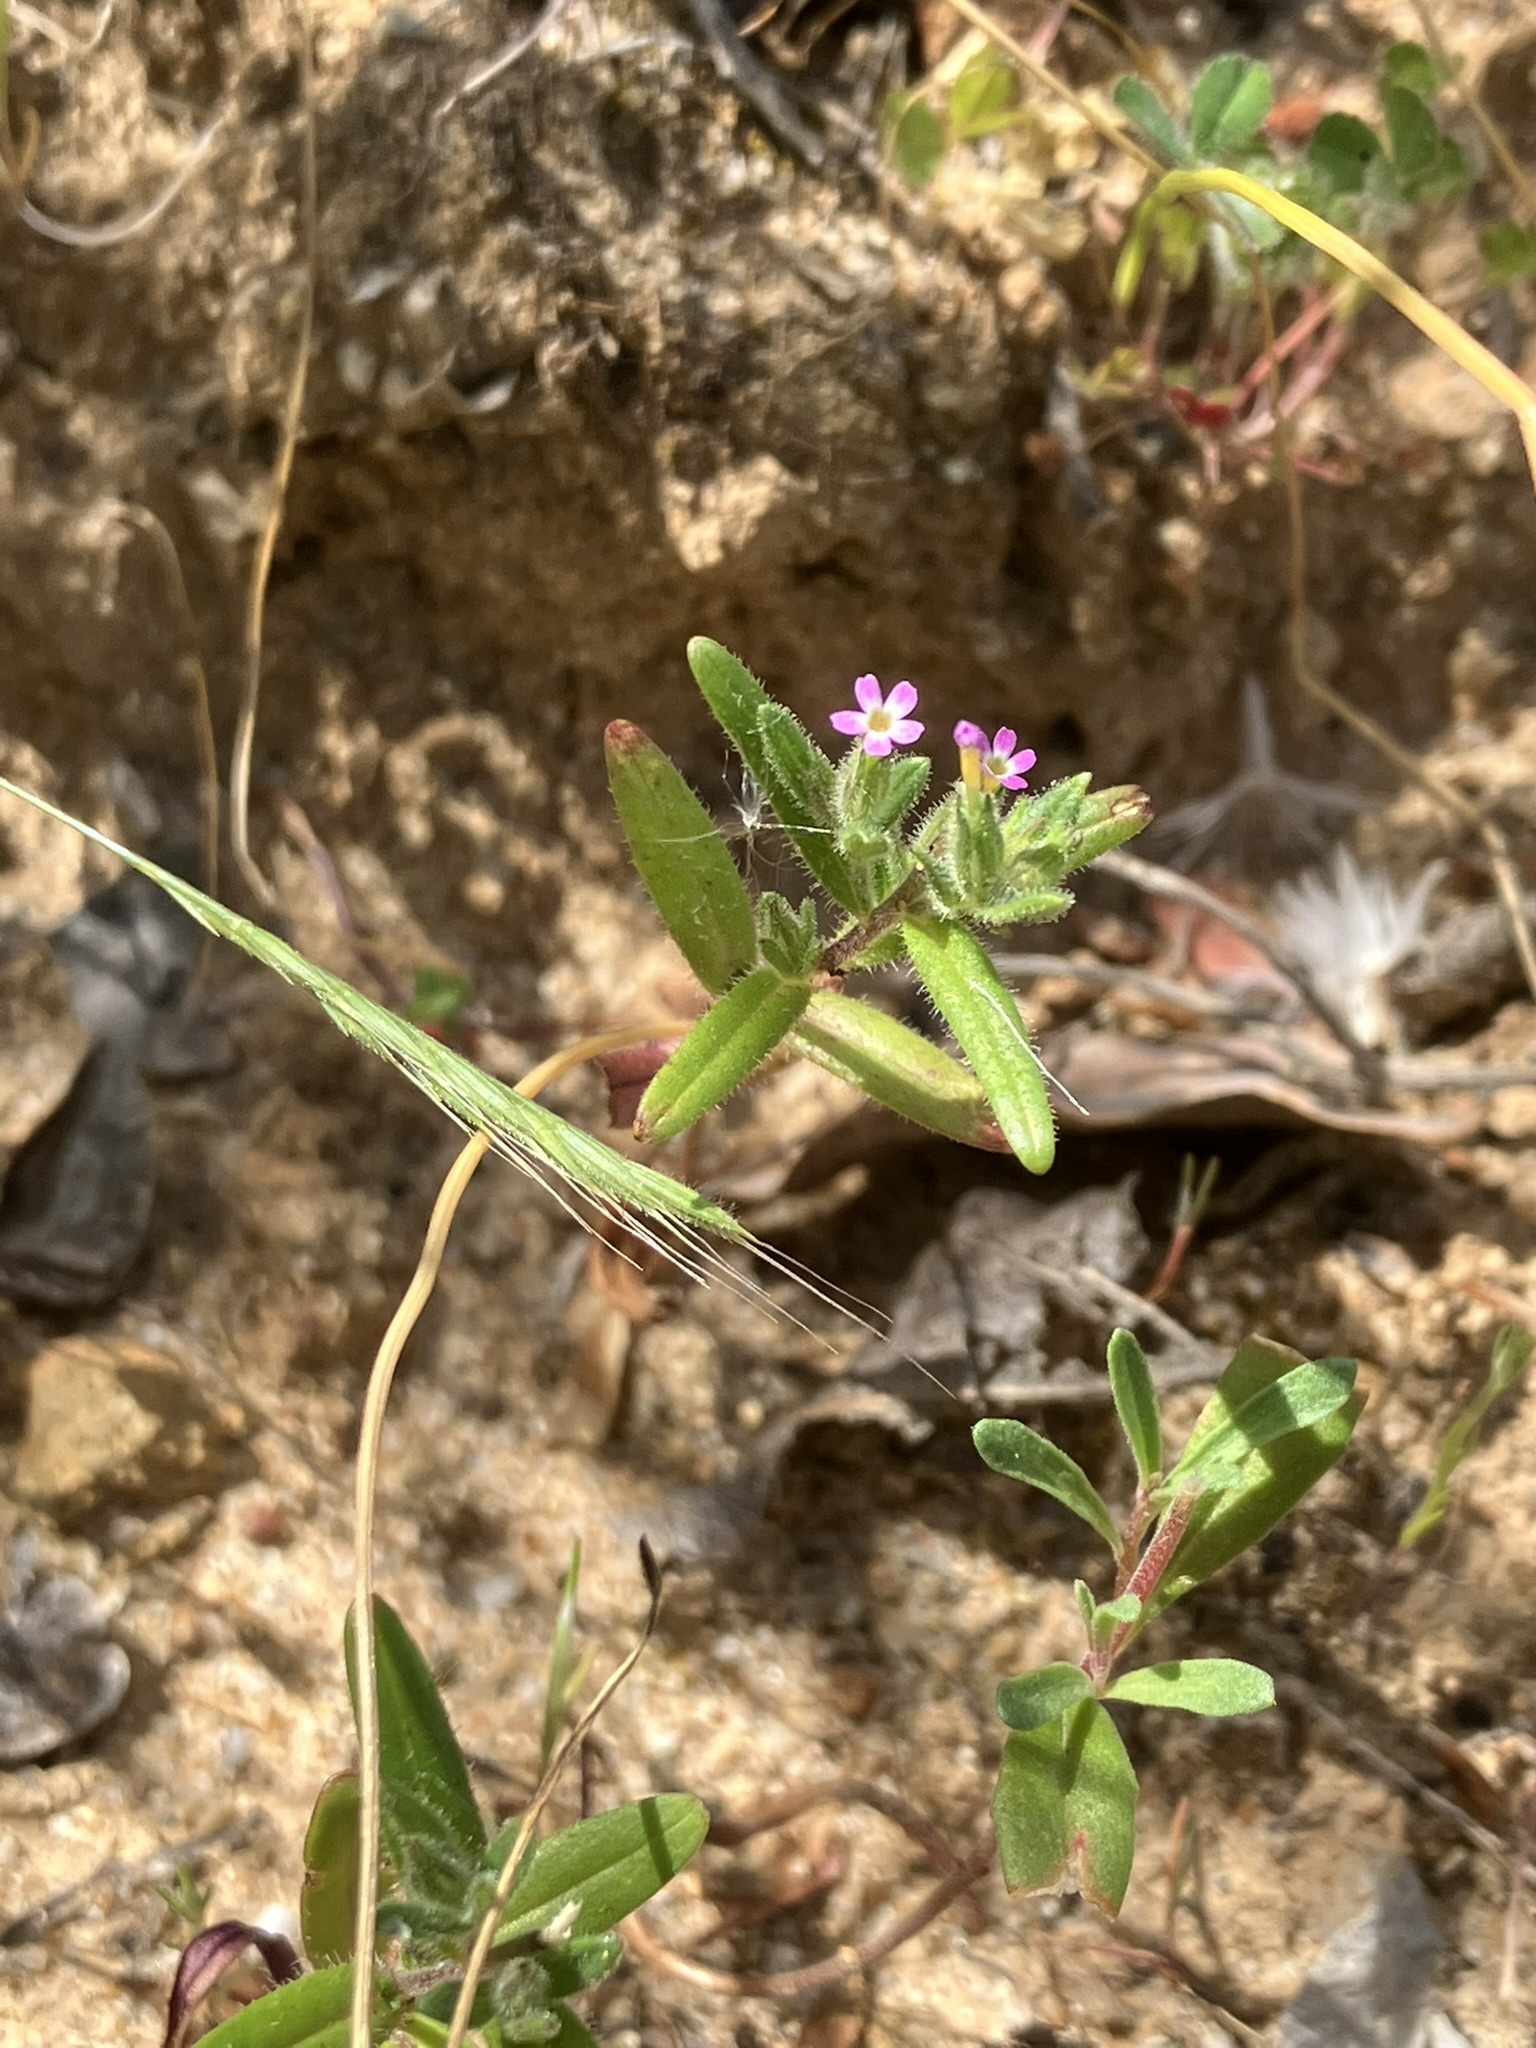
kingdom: Plantae
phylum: Tracheophyta
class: Magnoliopsida
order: Ericales
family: Polemoniaceae
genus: Phlox
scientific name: Phlox gracilis
